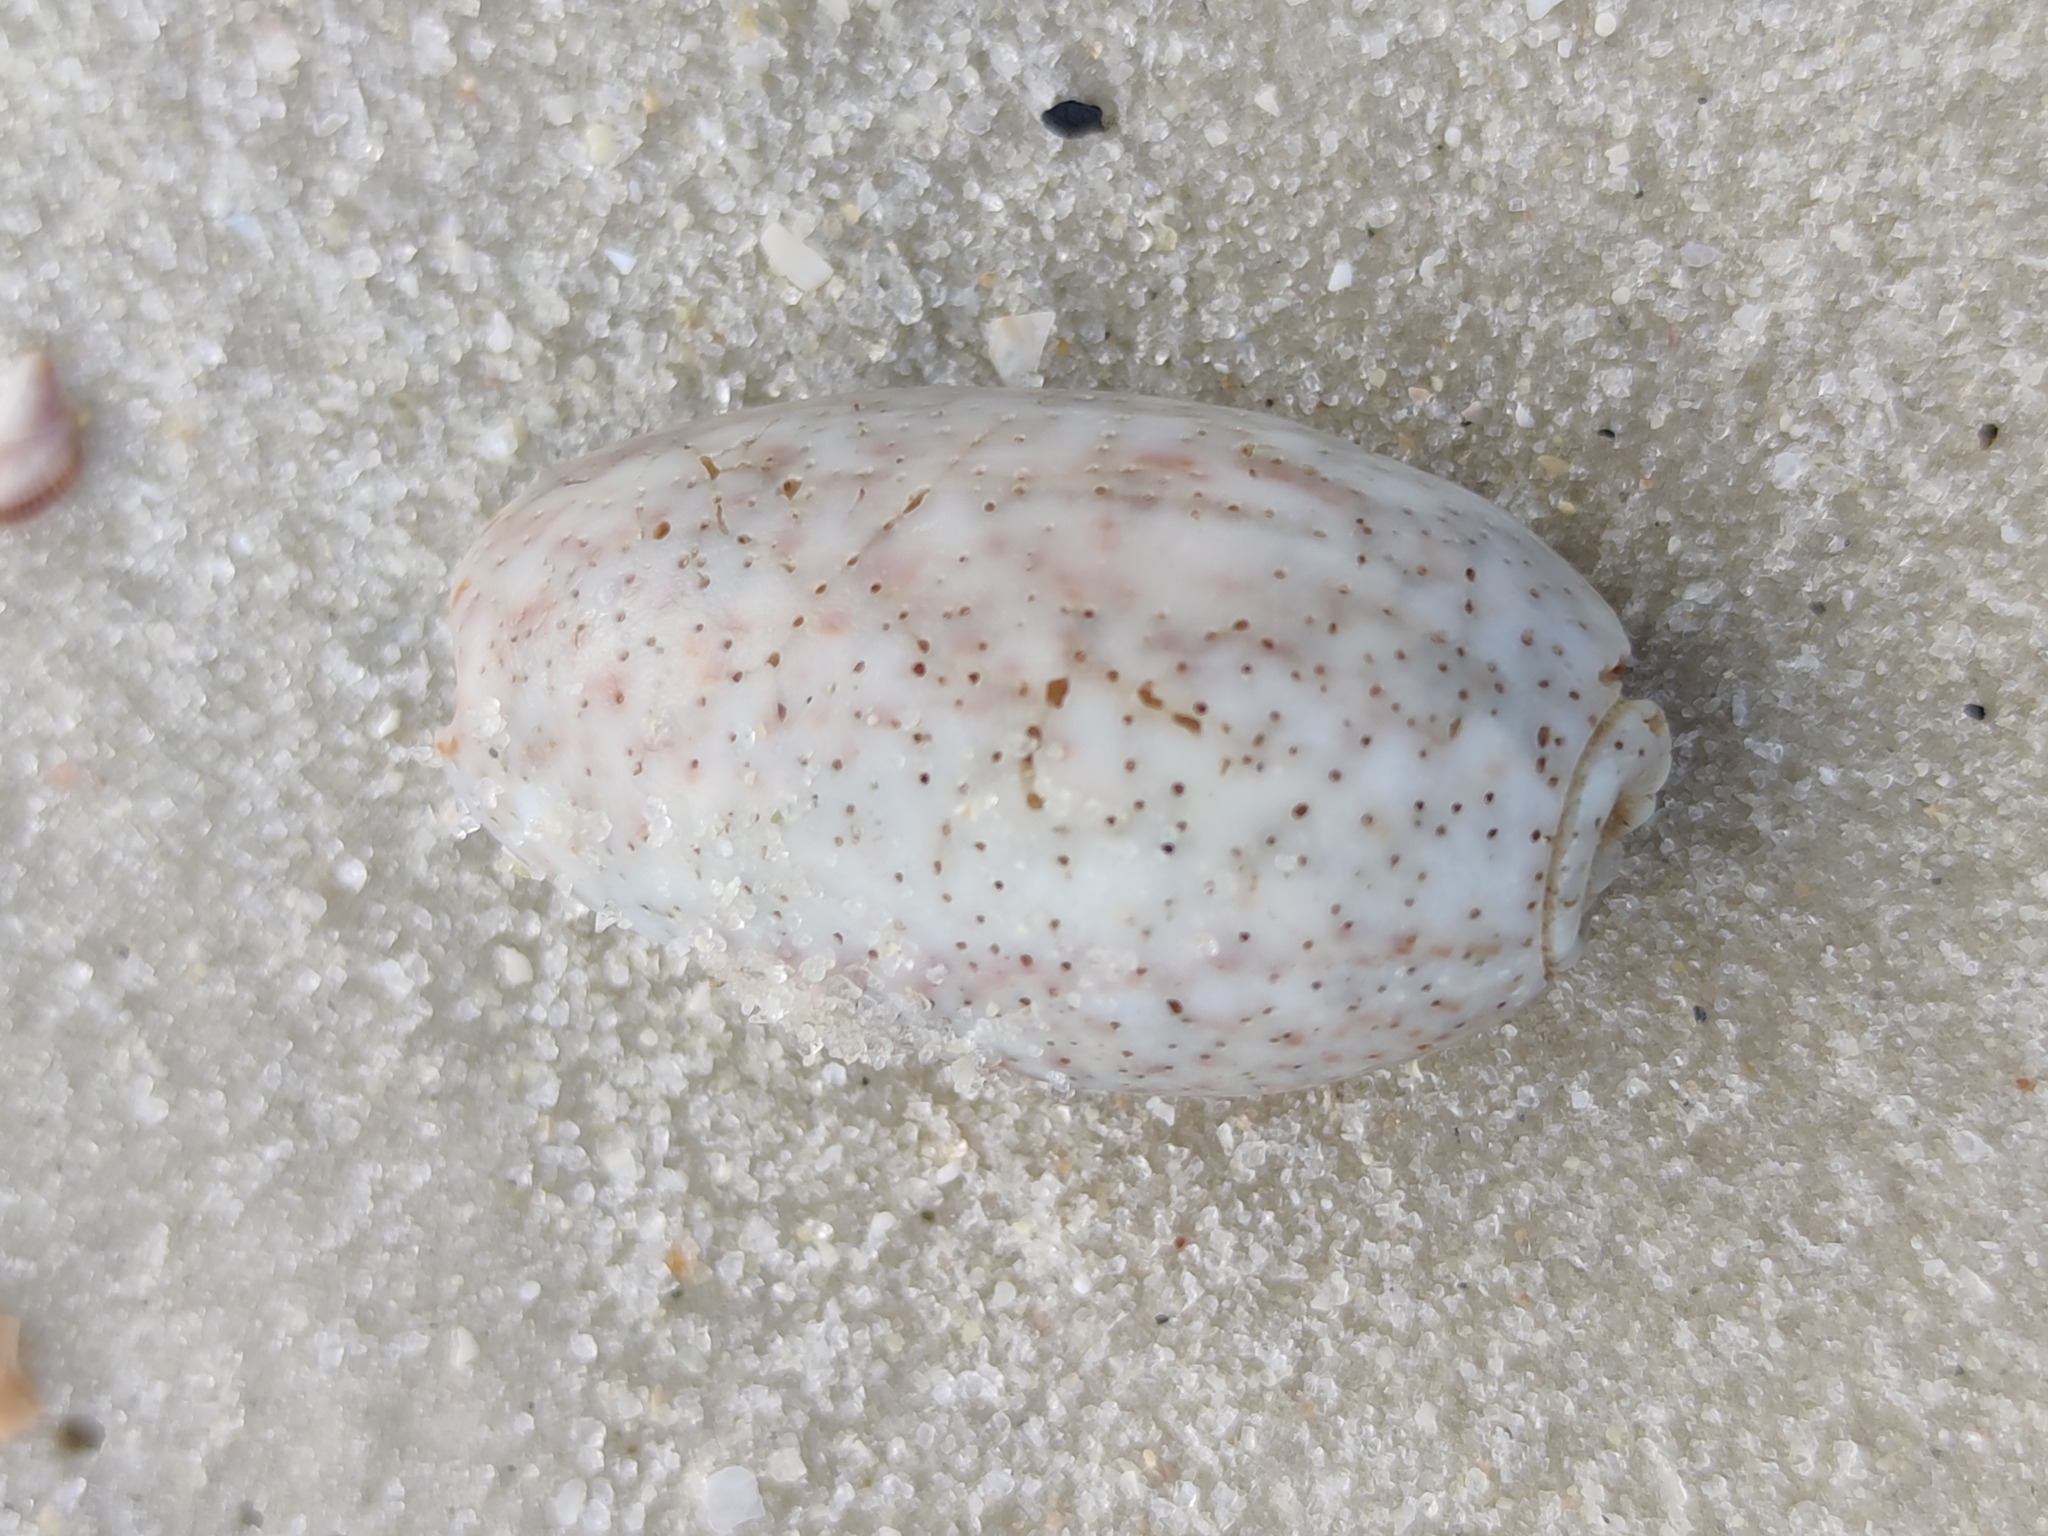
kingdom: Animalia
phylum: Mollusca
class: Gastropoda
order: Neogastropoda
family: Olividae
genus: Oliva
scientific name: Oliva bulbosa
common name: Inflated olive
